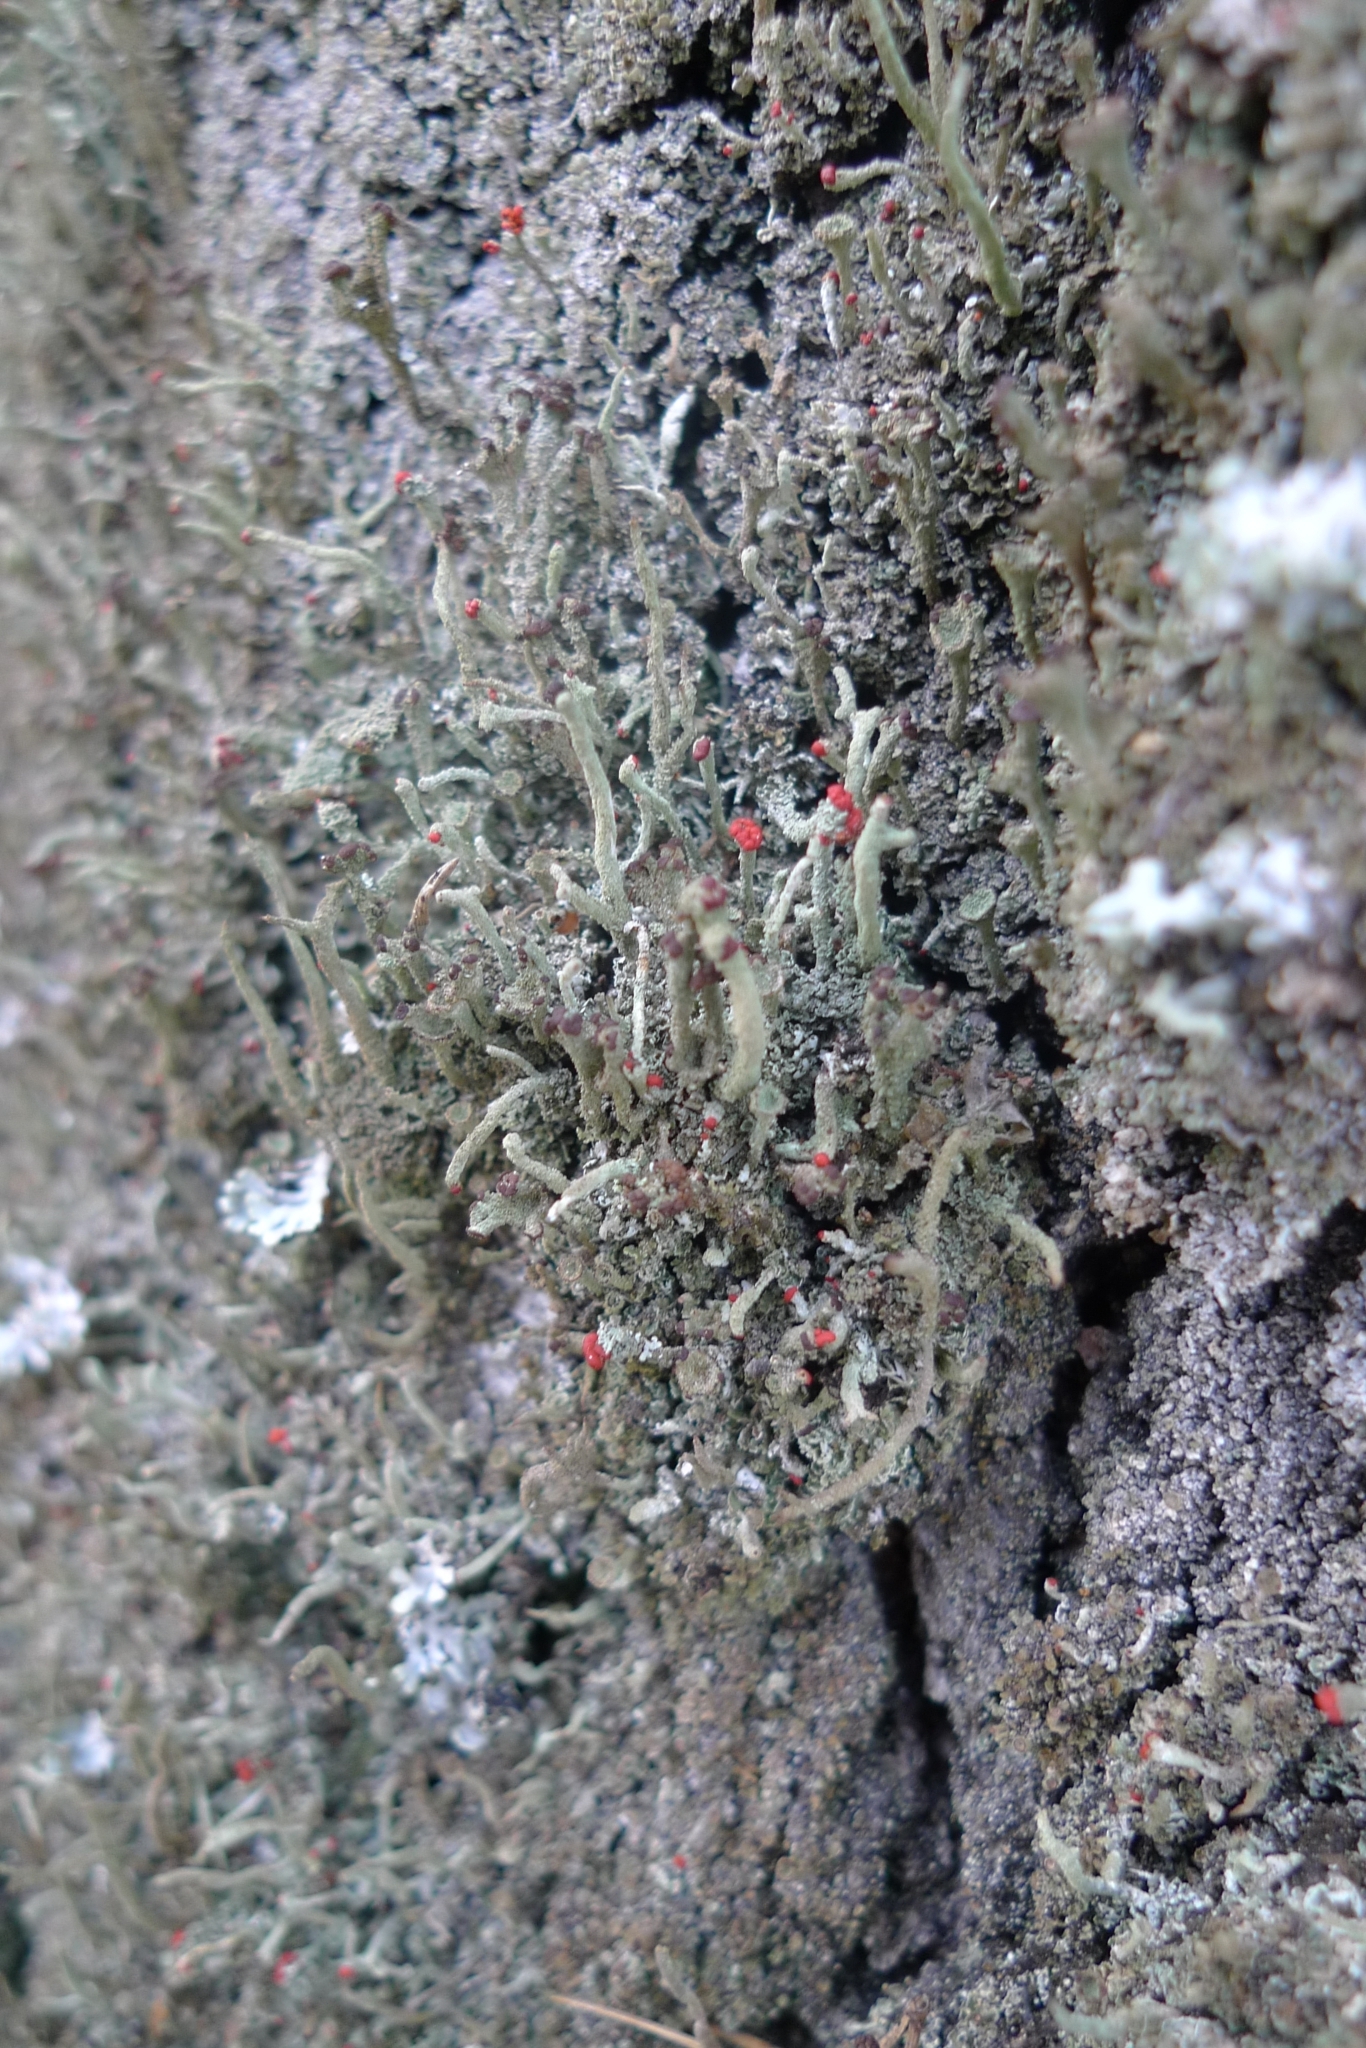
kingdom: Fungi
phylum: Ascomycota
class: Lecanoromycetes
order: Lecanorales
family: Cladoniaceae
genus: Cladonia
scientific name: Cladonia macilenta
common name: Lipstick powderhorn
